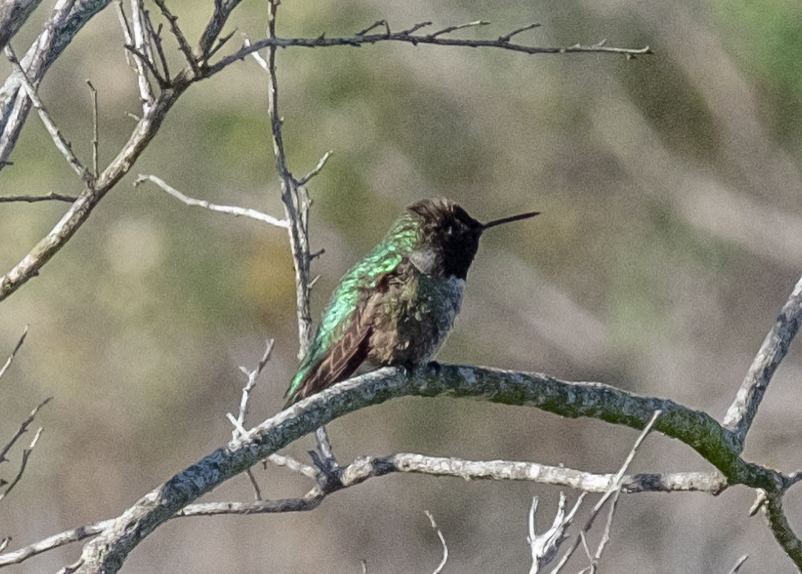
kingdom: Animalia
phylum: Chordata
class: Aves
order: Apodiformes
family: Trochilidae
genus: Calypte
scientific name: Calypte anna
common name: Anna's hummingbird
